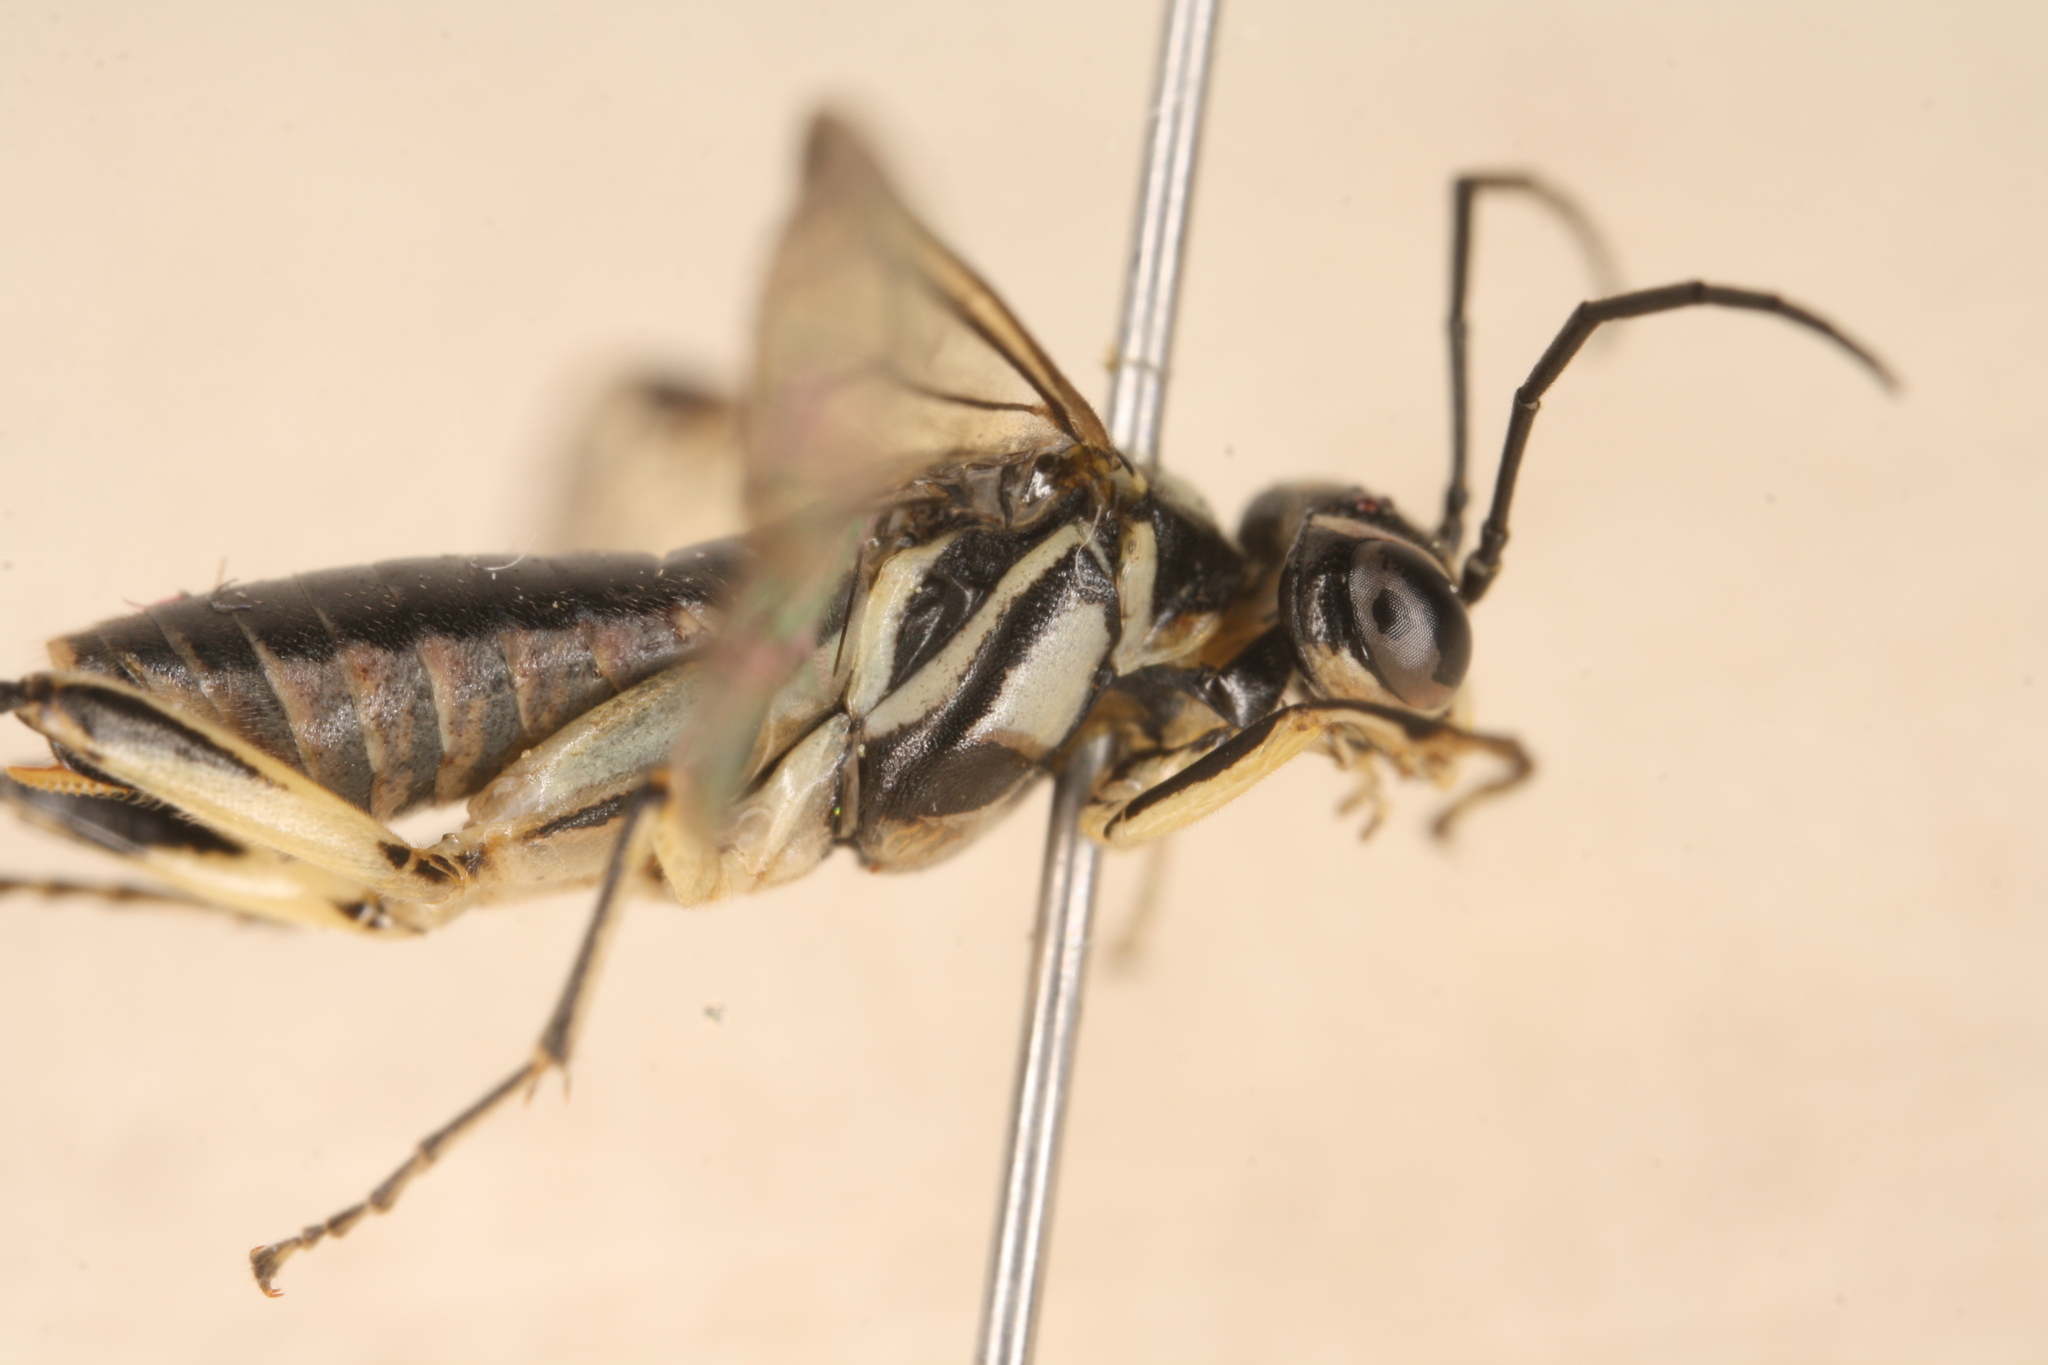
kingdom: Animalia
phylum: Arthropoda
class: Insecta
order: Hymenoptera
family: Tenthredinidae
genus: Pachyprotasis
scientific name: Pachyprotasis rapae
